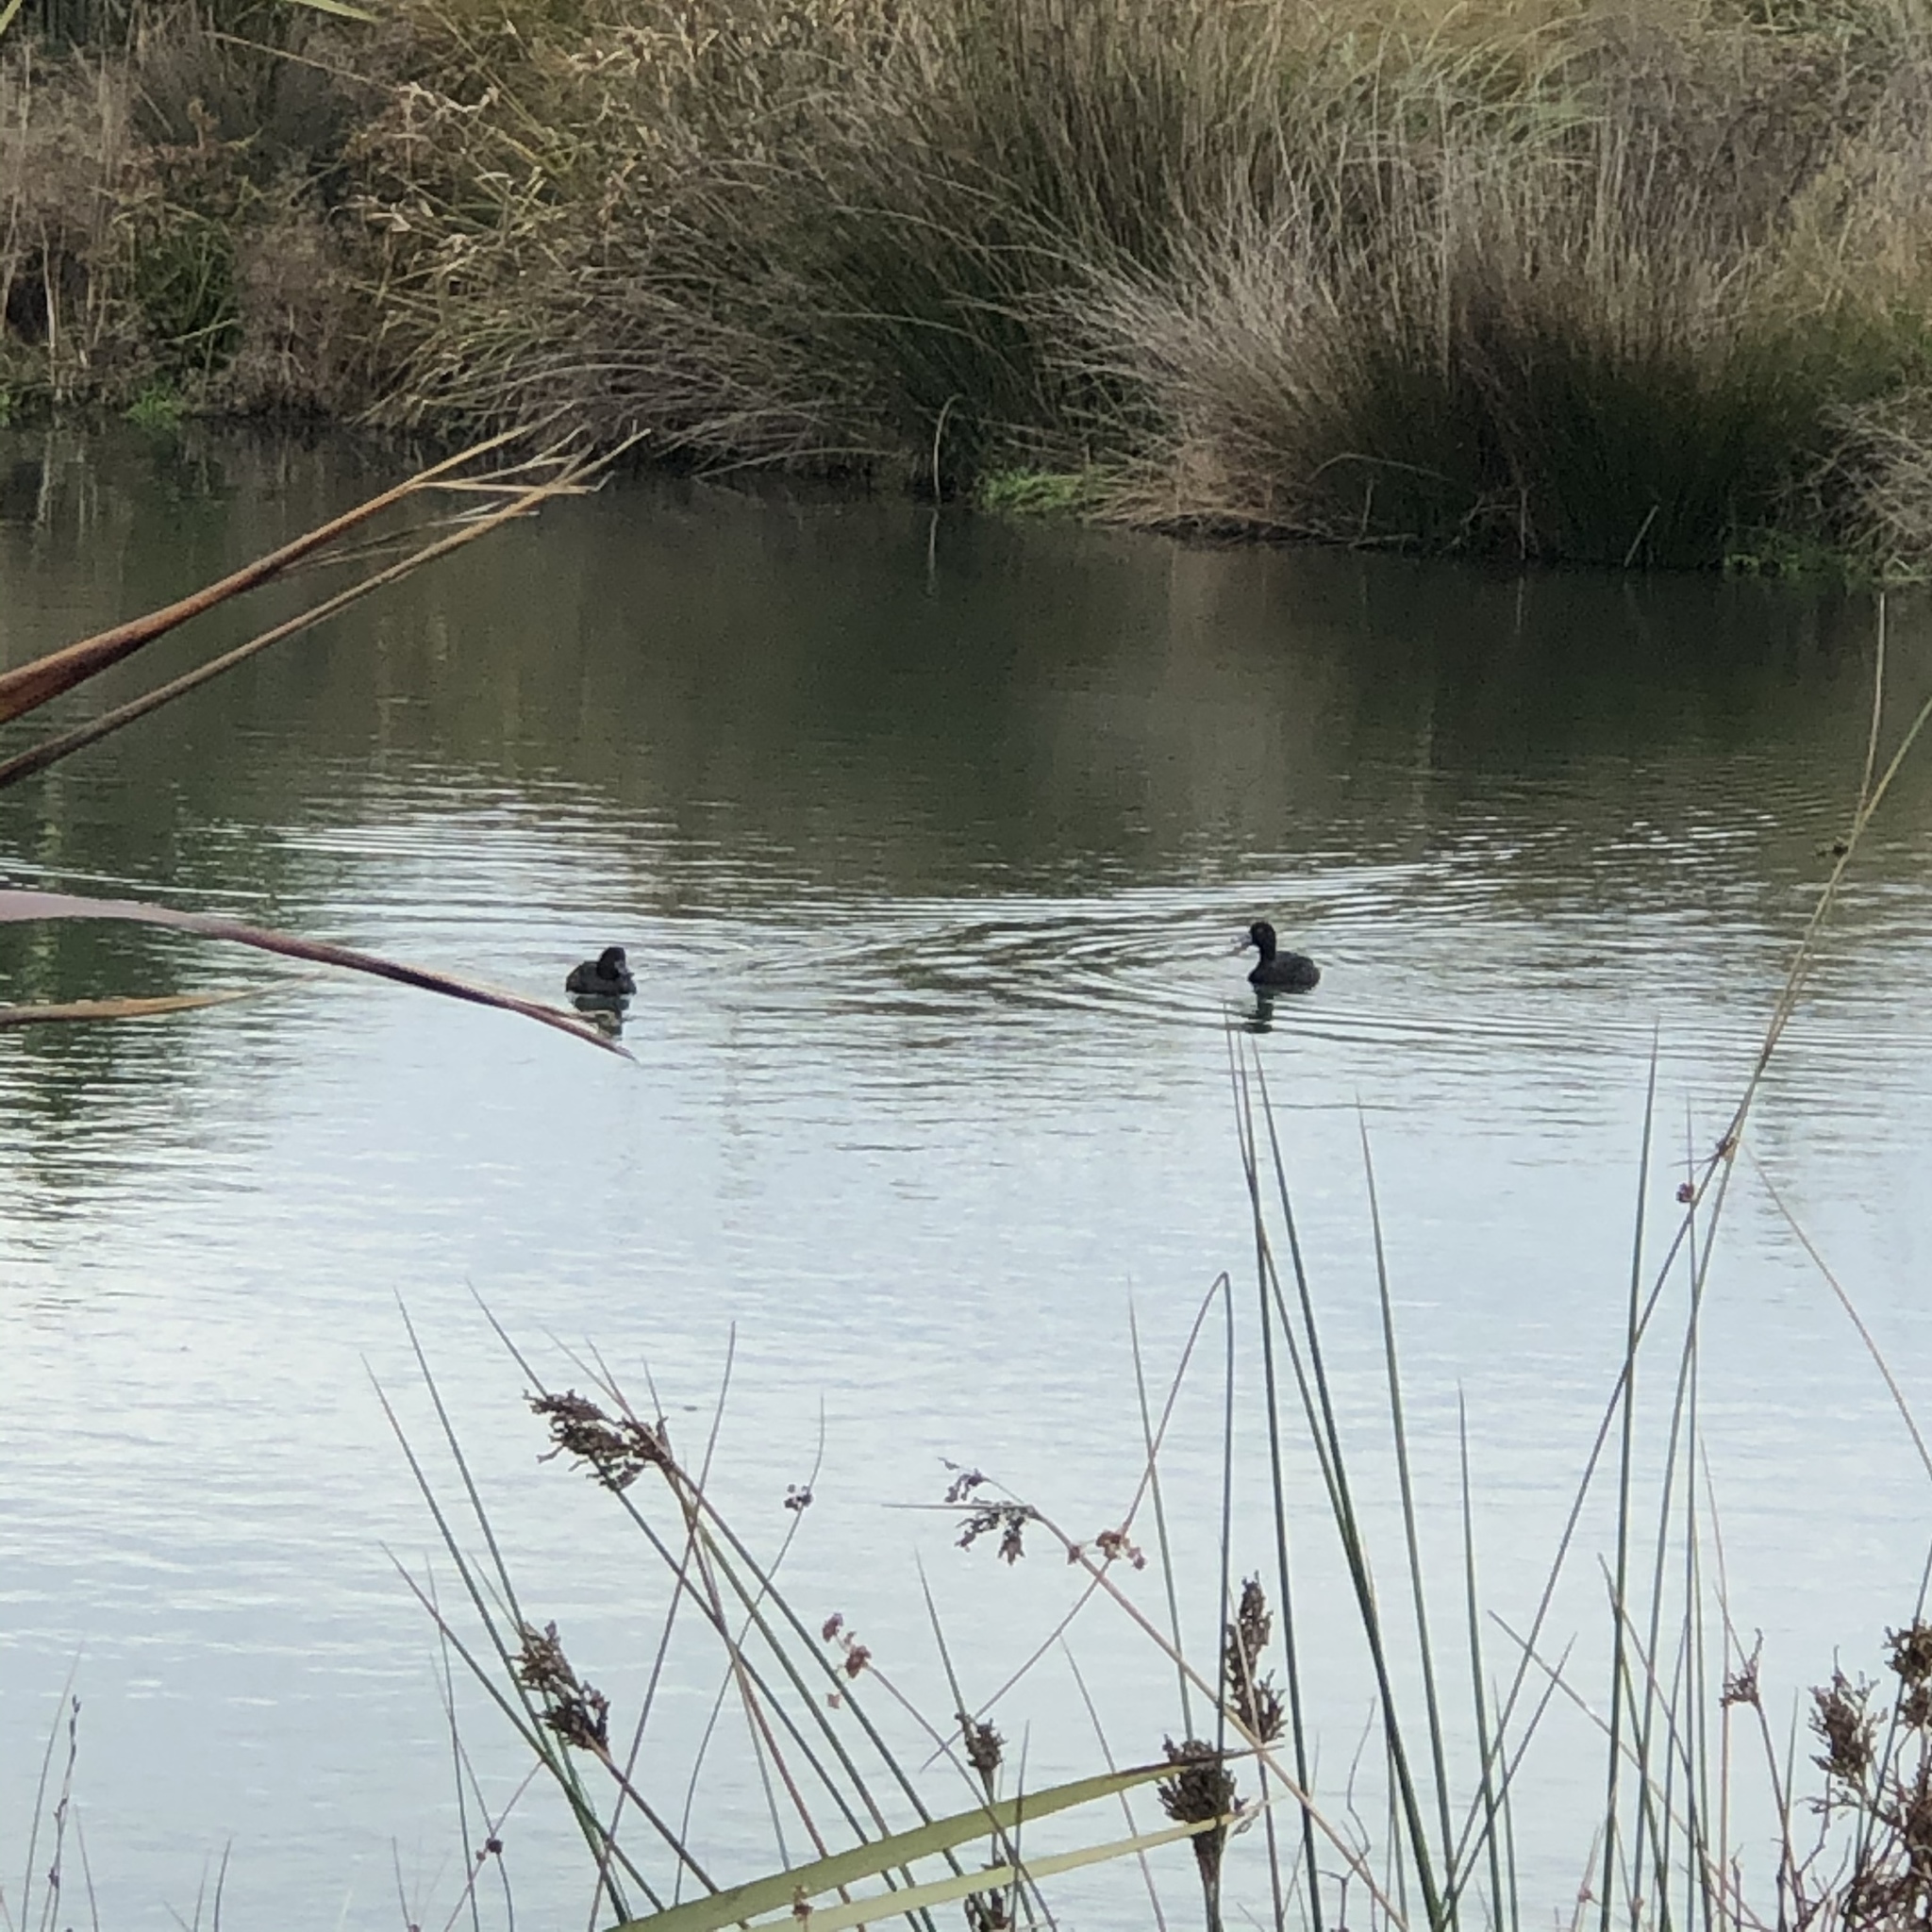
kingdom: Animalia
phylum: Chordata
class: Aves
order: Anseriformes
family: Anatidae
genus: Aythya
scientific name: Aythya novaeseelandiae
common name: New zealand scaup
